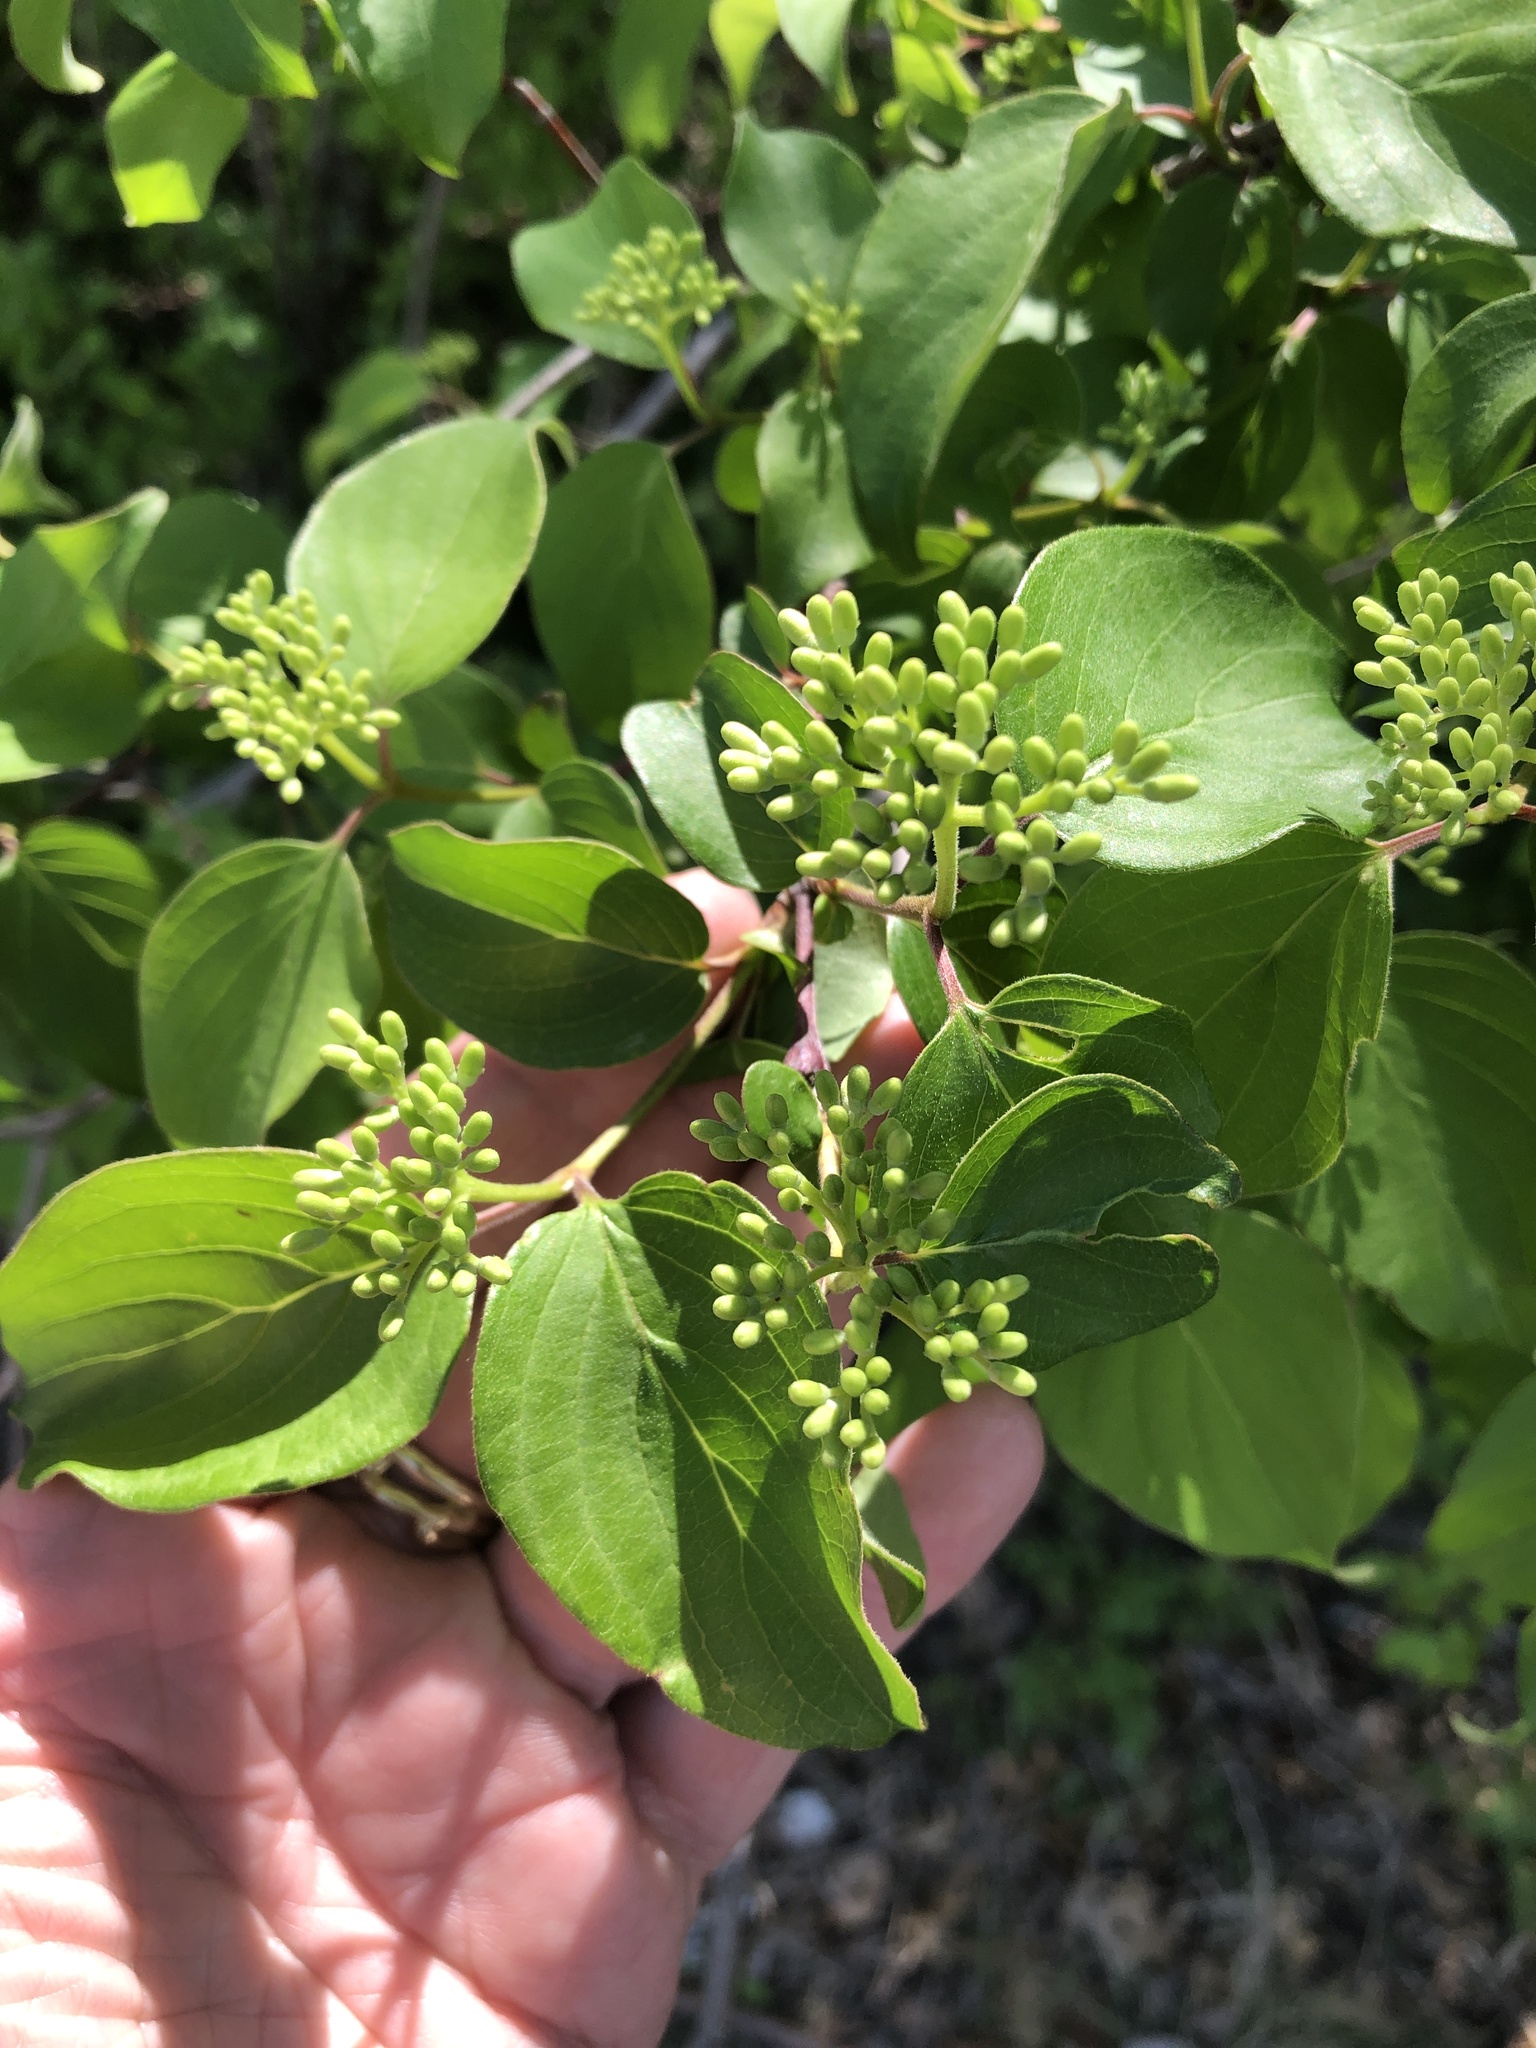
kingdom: Plantae
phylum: Tracheophyta
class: Magnoliopsida
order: Cornales
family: Cornaceae
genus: Cornus
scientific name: Cornus drummondii
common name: Rough-leaf dogwood
